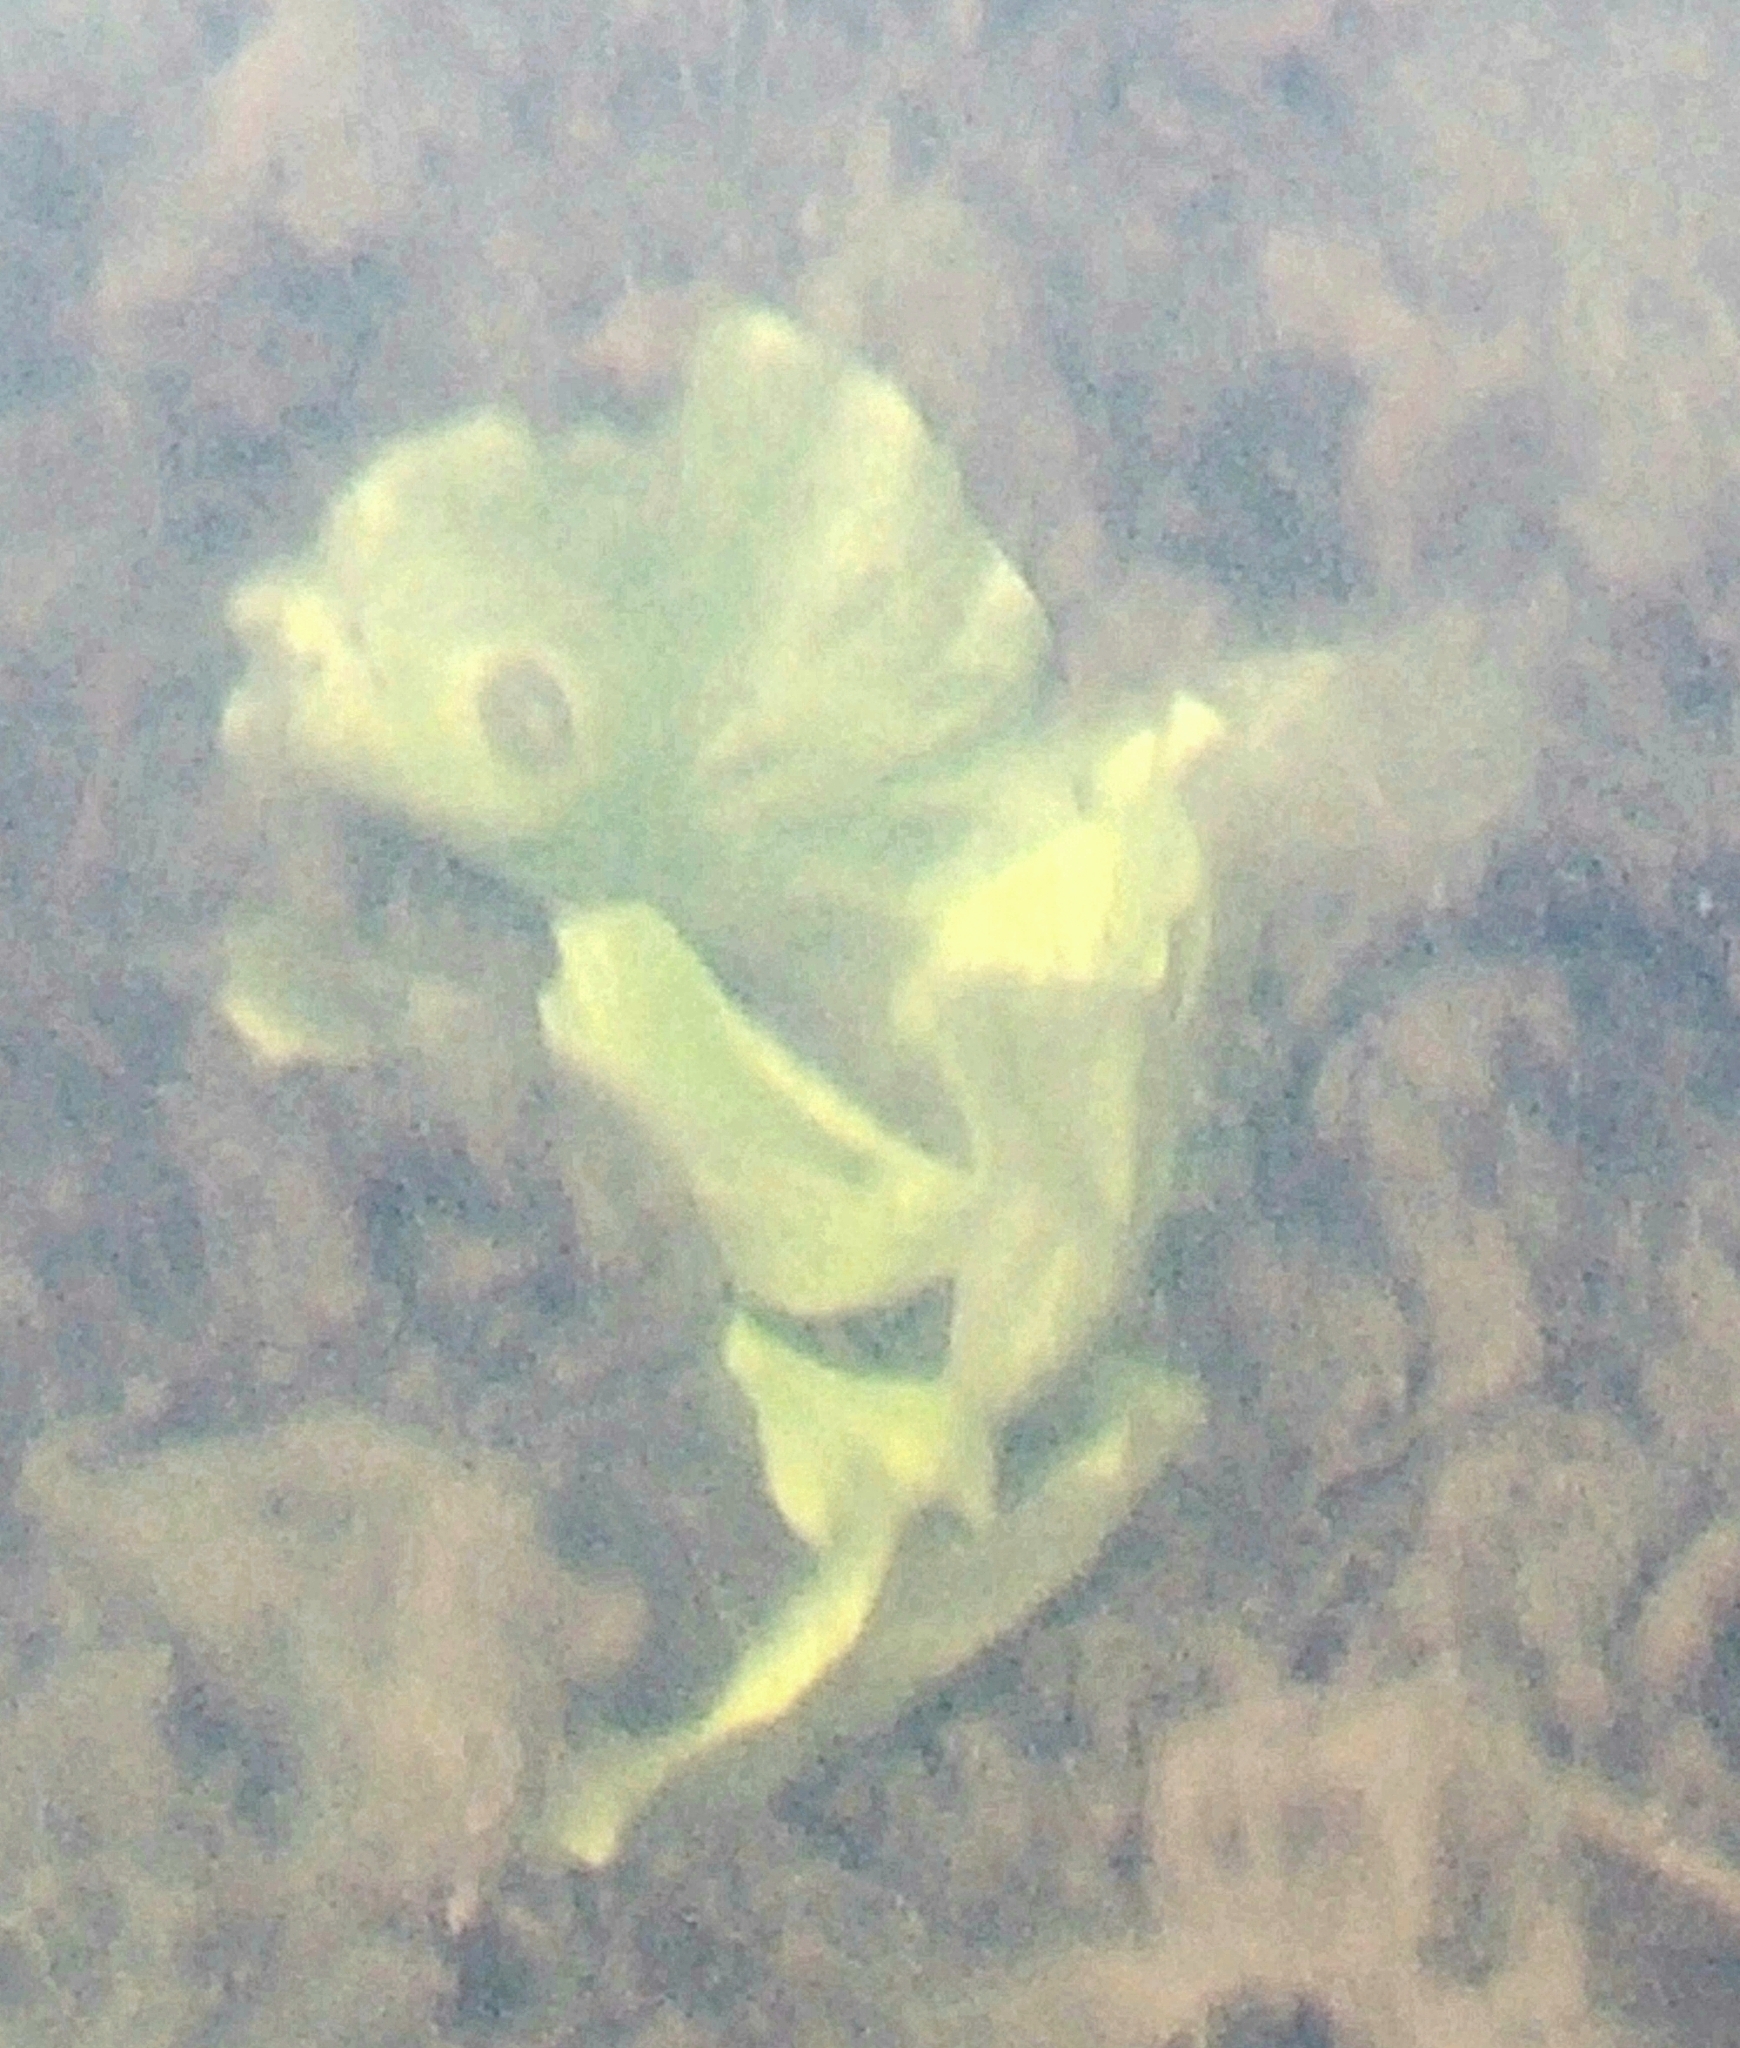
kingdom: Plantae
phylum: Tracheophyta
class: Magnoliopsida
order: Nymphaeales
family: Nymphaeaceae
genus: Nuphar
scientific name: Nuphar polysepala
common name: Rocky mountain cow-lily
